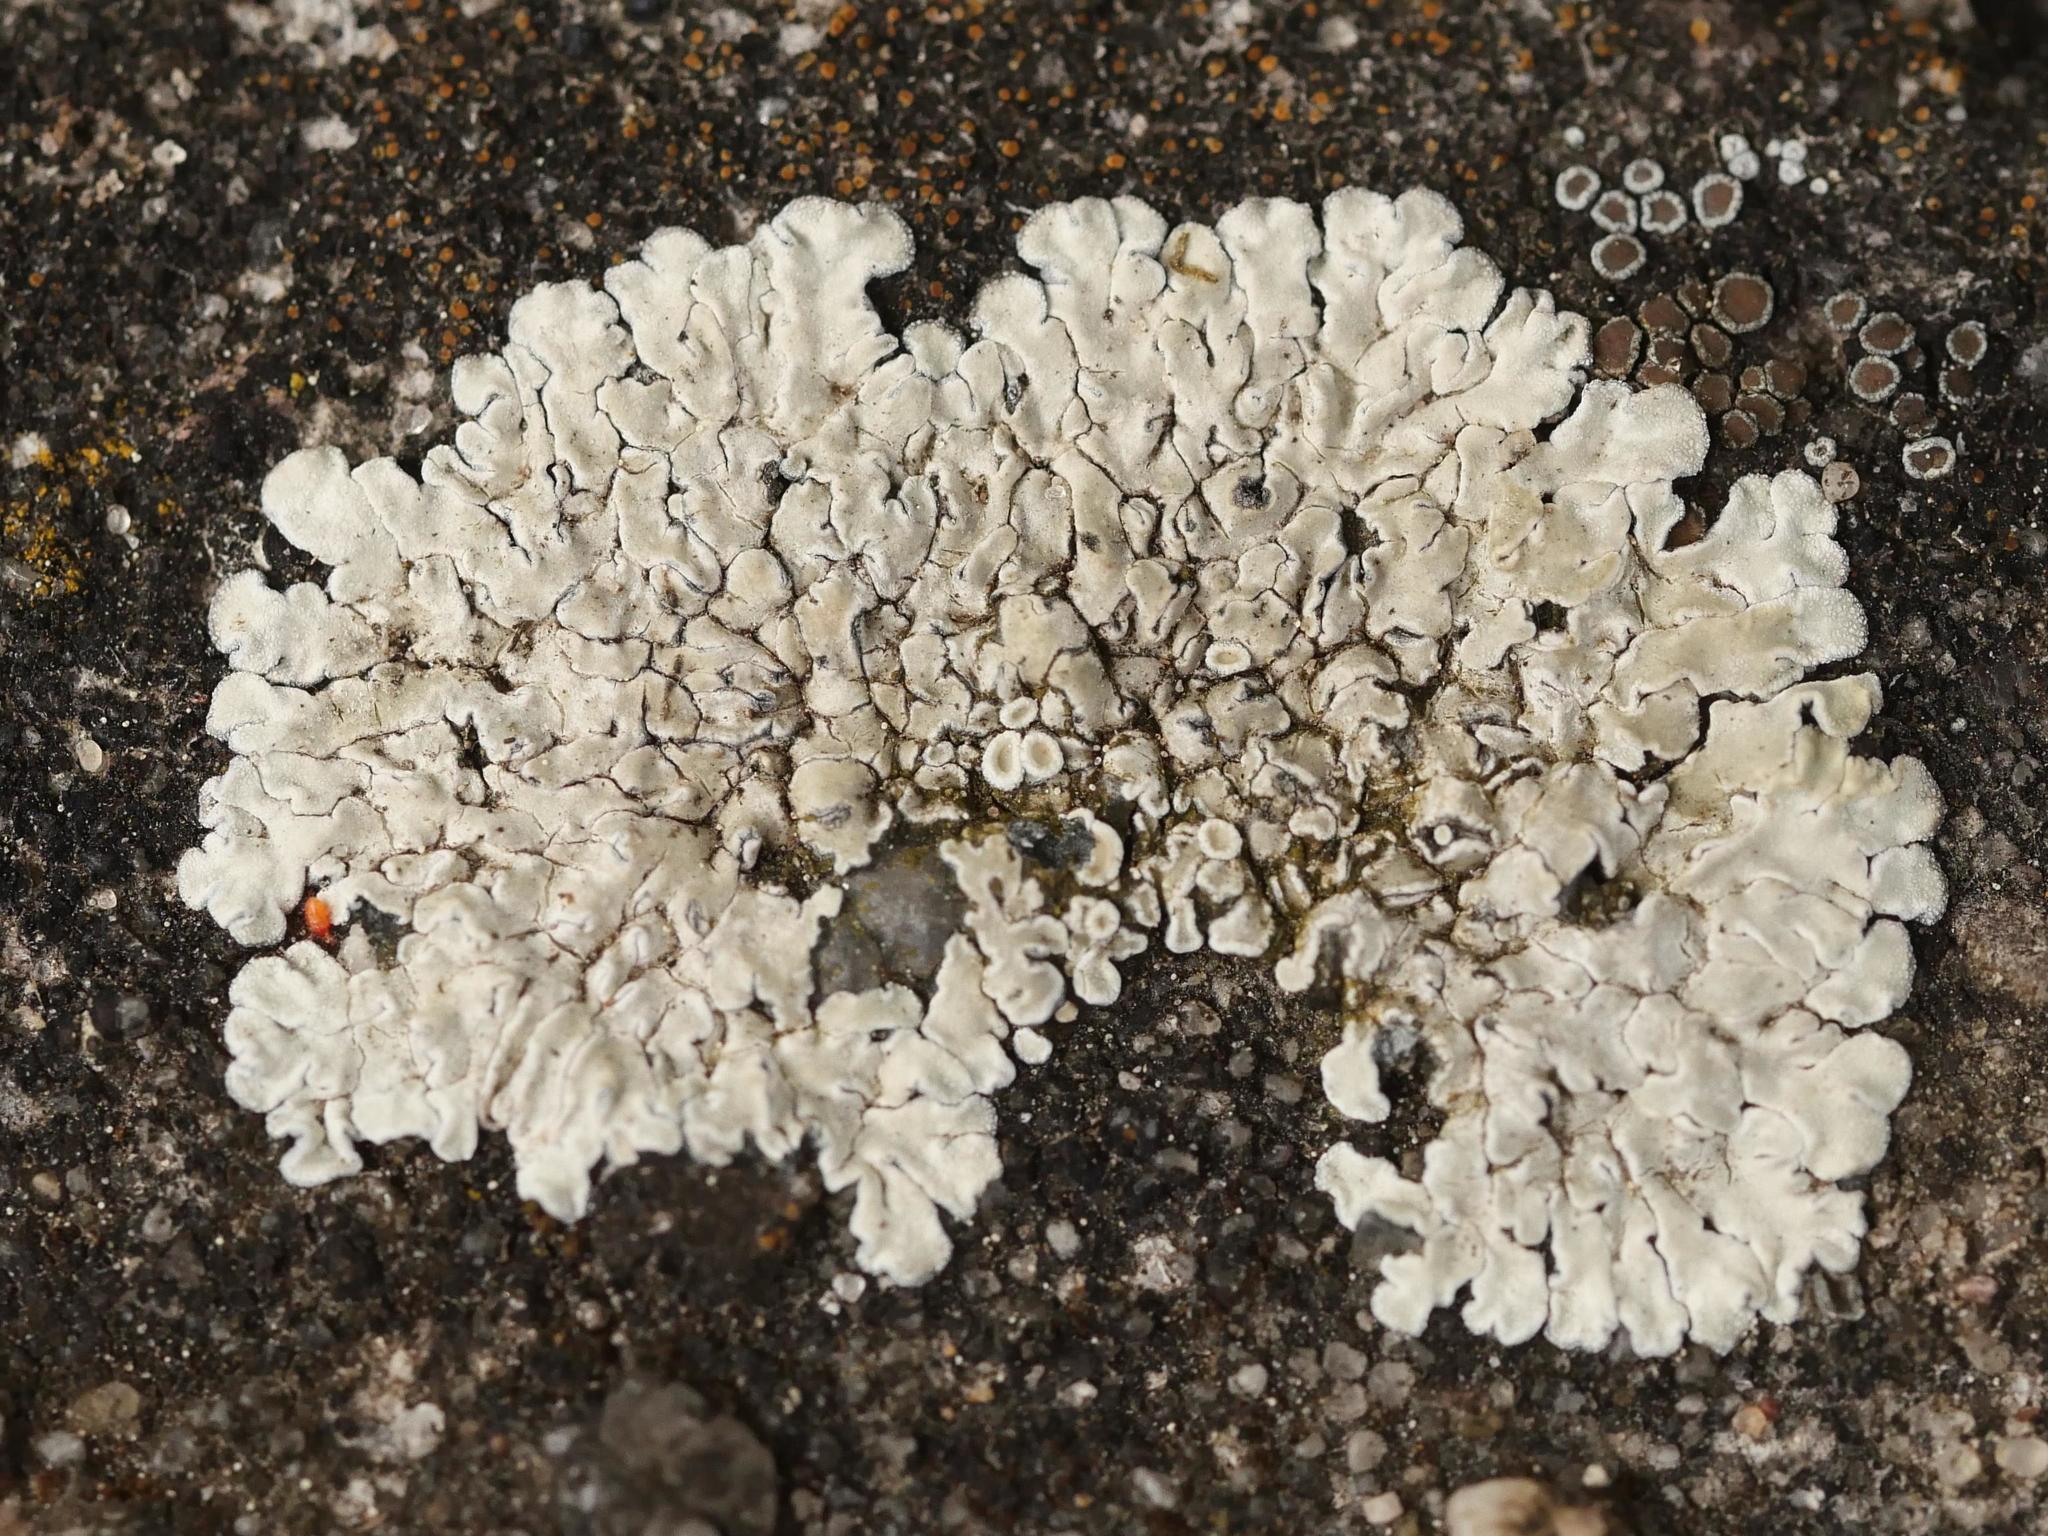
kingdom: Fungi
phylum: Ascomycota
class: Lecanoromycetes
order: Lecanorales
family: Lecanoraceae
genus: Protoparmeliopsis
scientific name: Protoparmeliopsis muralis
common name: Stonewall rim lichen
